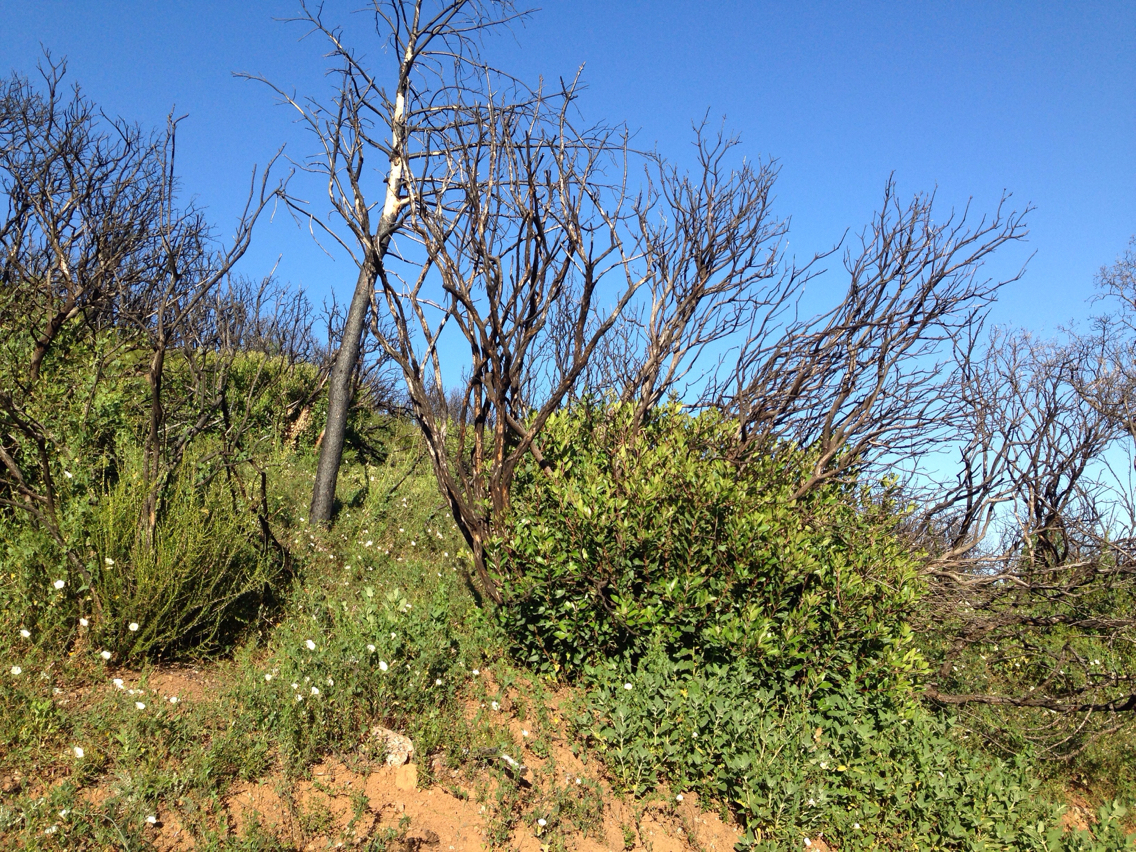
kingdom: Plantae
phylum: Tracheophyta
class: Magnoliopsida
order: Rosales
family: Rosaceae
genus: Heteromeles
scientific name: Heteromeles arbutifolia
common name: California-holly
